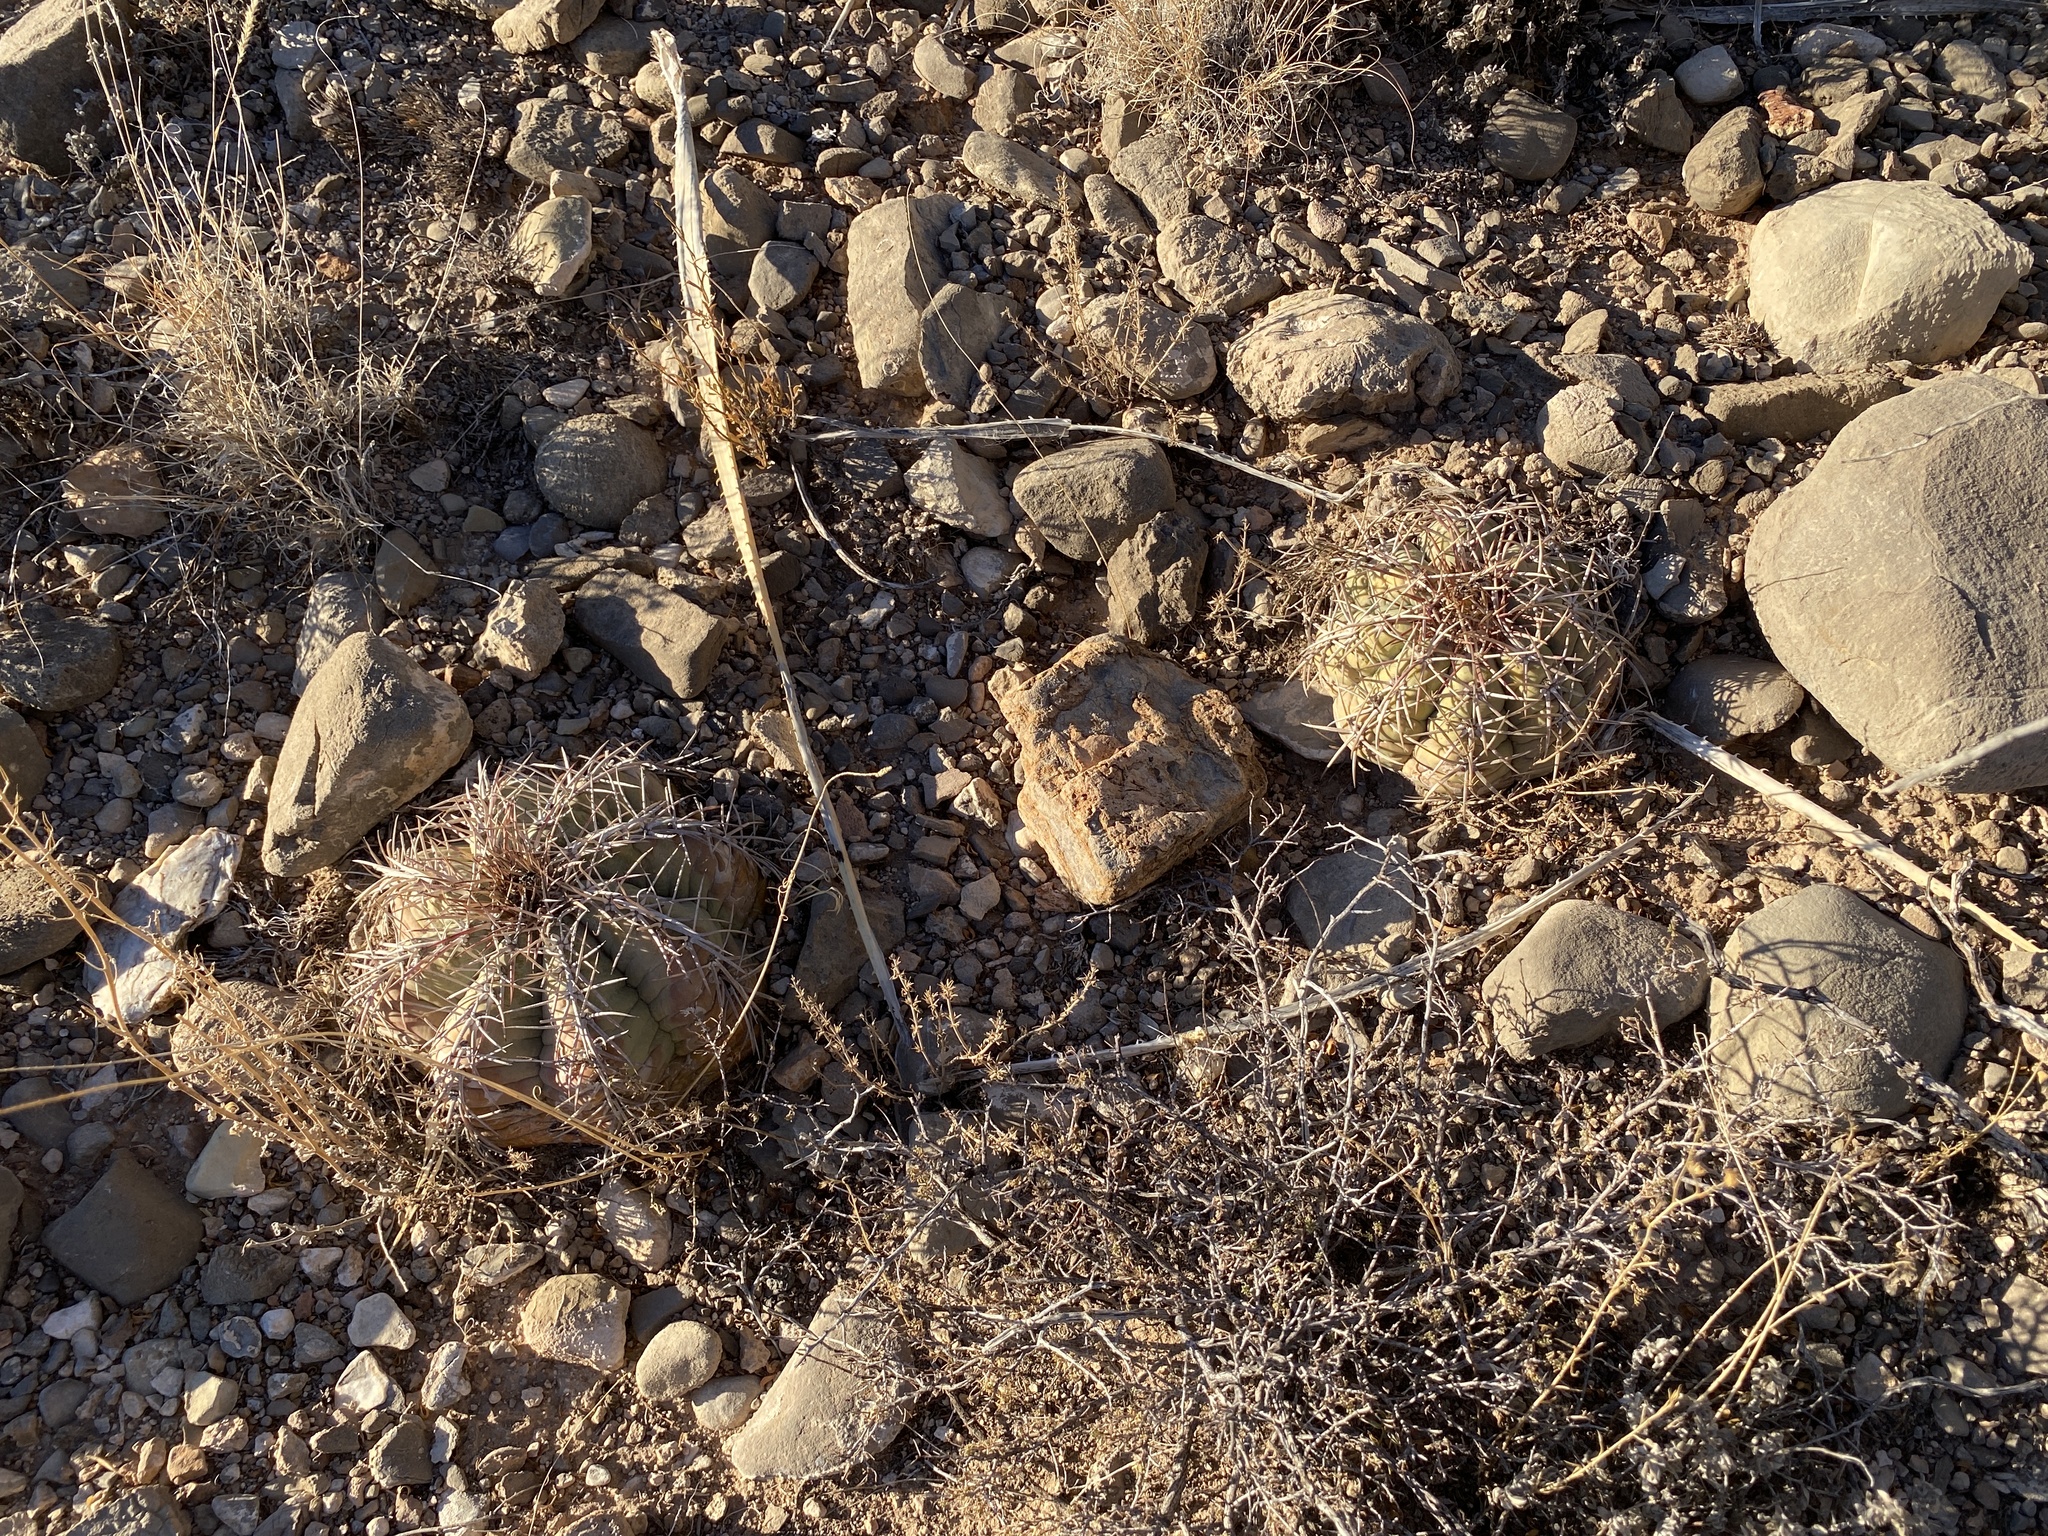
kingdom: Plantae
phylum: Tracheophyta
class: Magnoliopsida
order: Caryophyllales
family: Cactaceae
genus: Echinocactus
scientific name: Echinocactus horizonthalonius
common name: Devilshead
